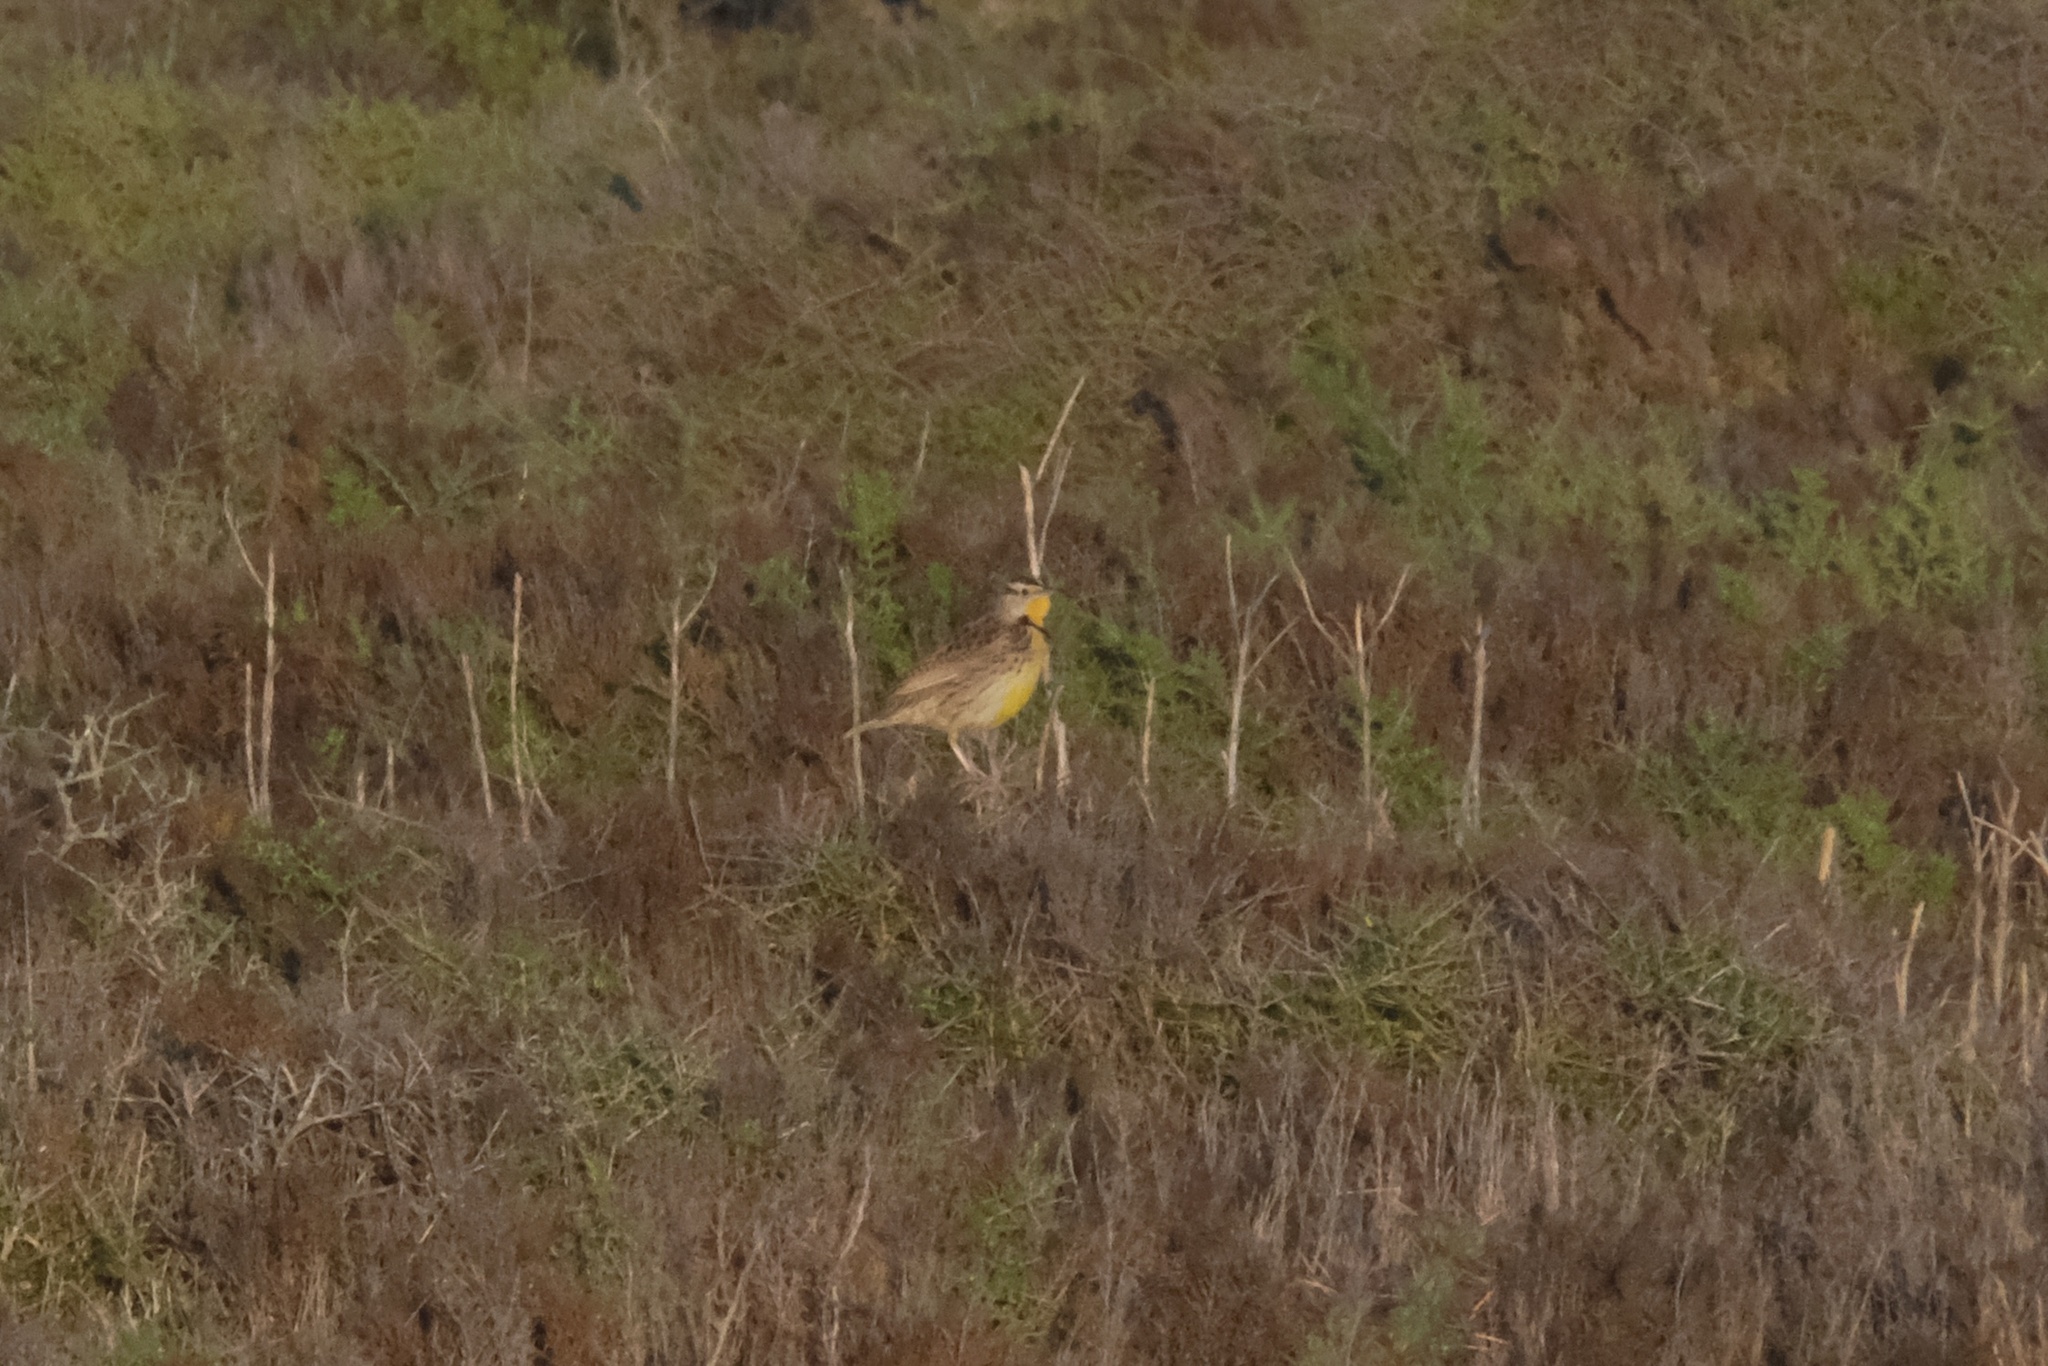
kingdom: Animalia
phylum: Chordata
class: Aves
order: Passeriformes
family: Icteridae
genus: Sturnella
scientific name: Sturnella neglecta
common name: Western meadowlark
